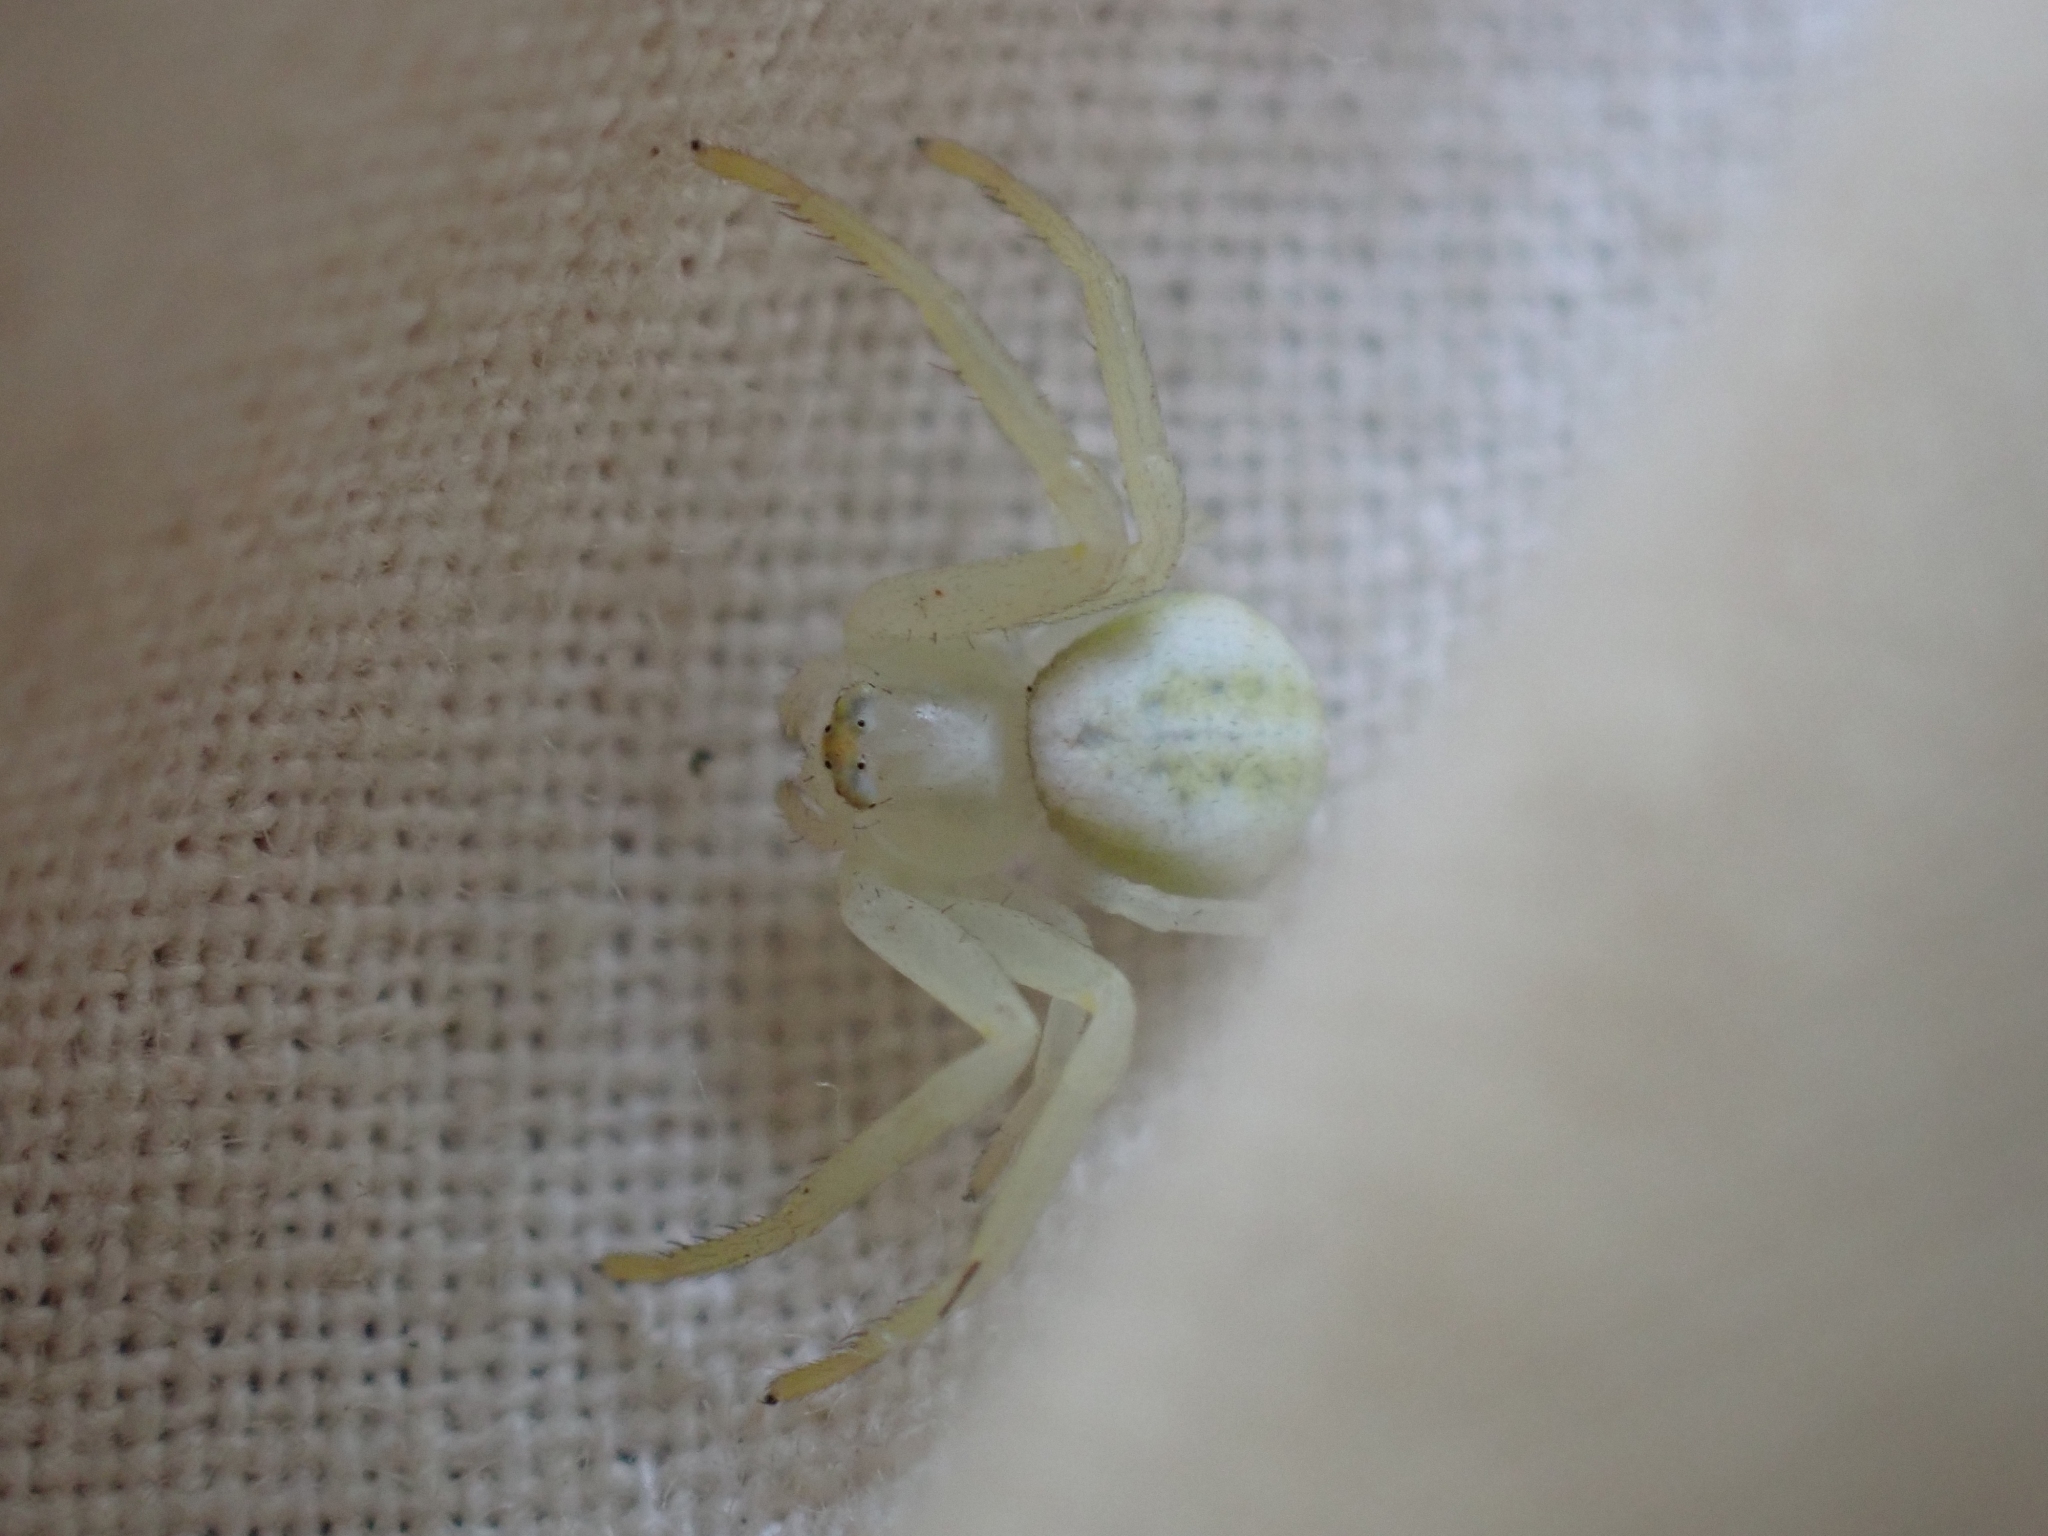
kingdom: Animalia
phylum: Arthropoda
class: Arachnida
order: Araneae
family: Thomisidae
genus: Misumena
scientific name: Misumena vatia
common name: Goldenrod crab spider
